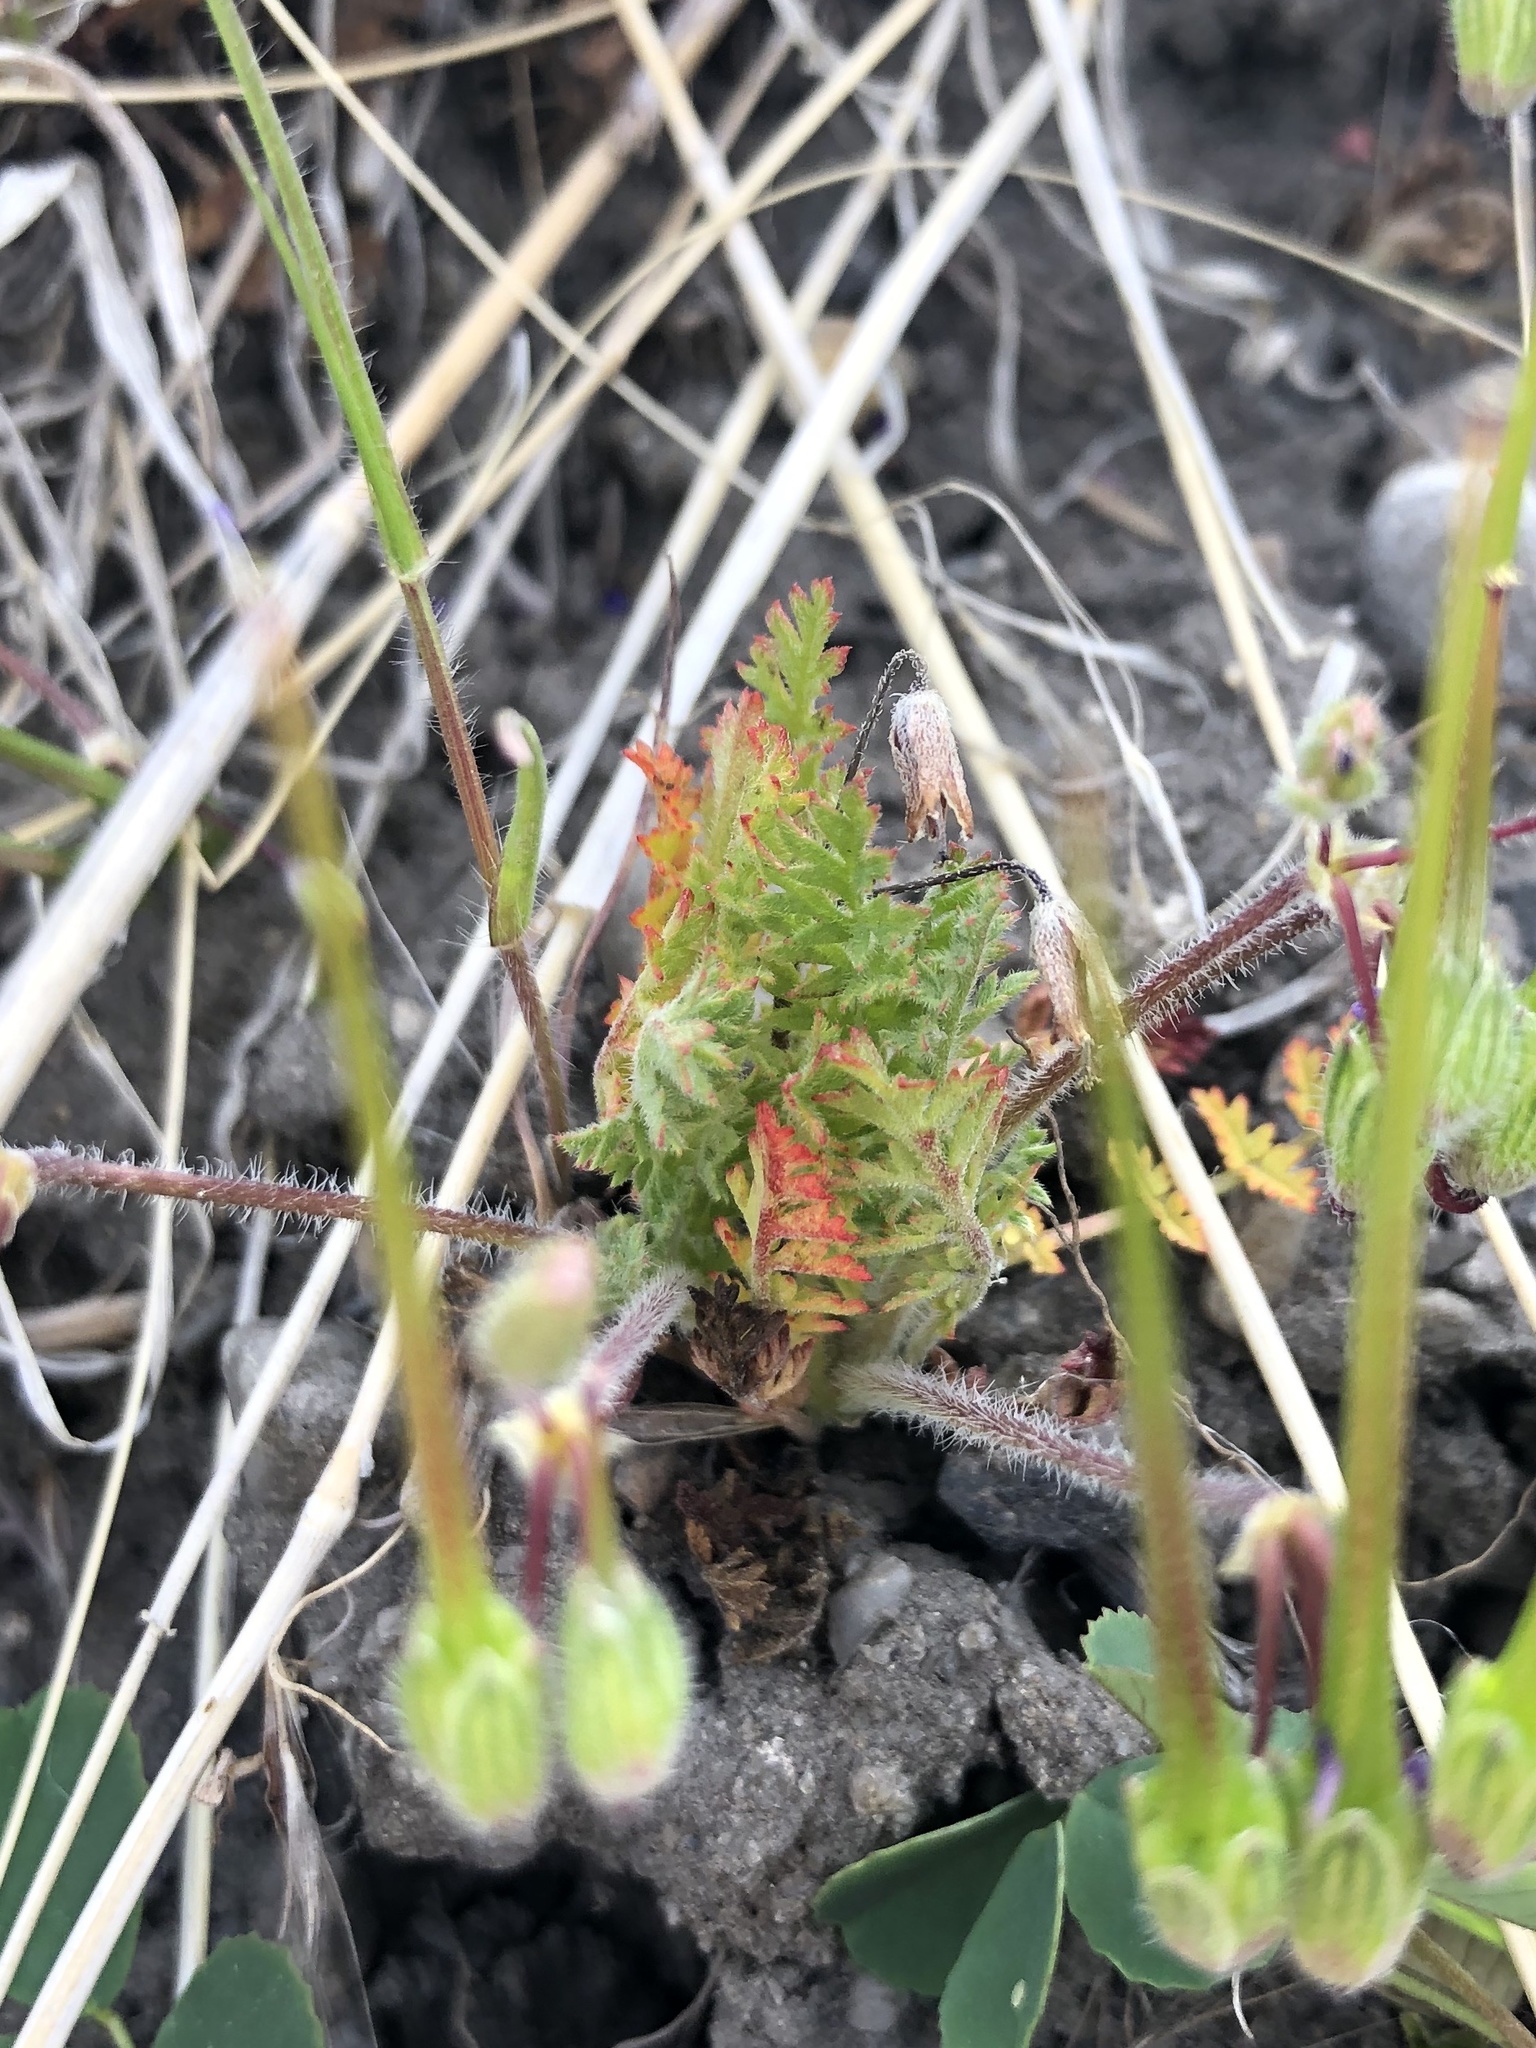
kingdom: Plantae
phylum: Tracheophyta
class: Magnoliopsida
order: Geraniales
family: Geraniaceae
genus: Erodium
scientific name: Erodium cicutarium
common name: Common stork's-bill
